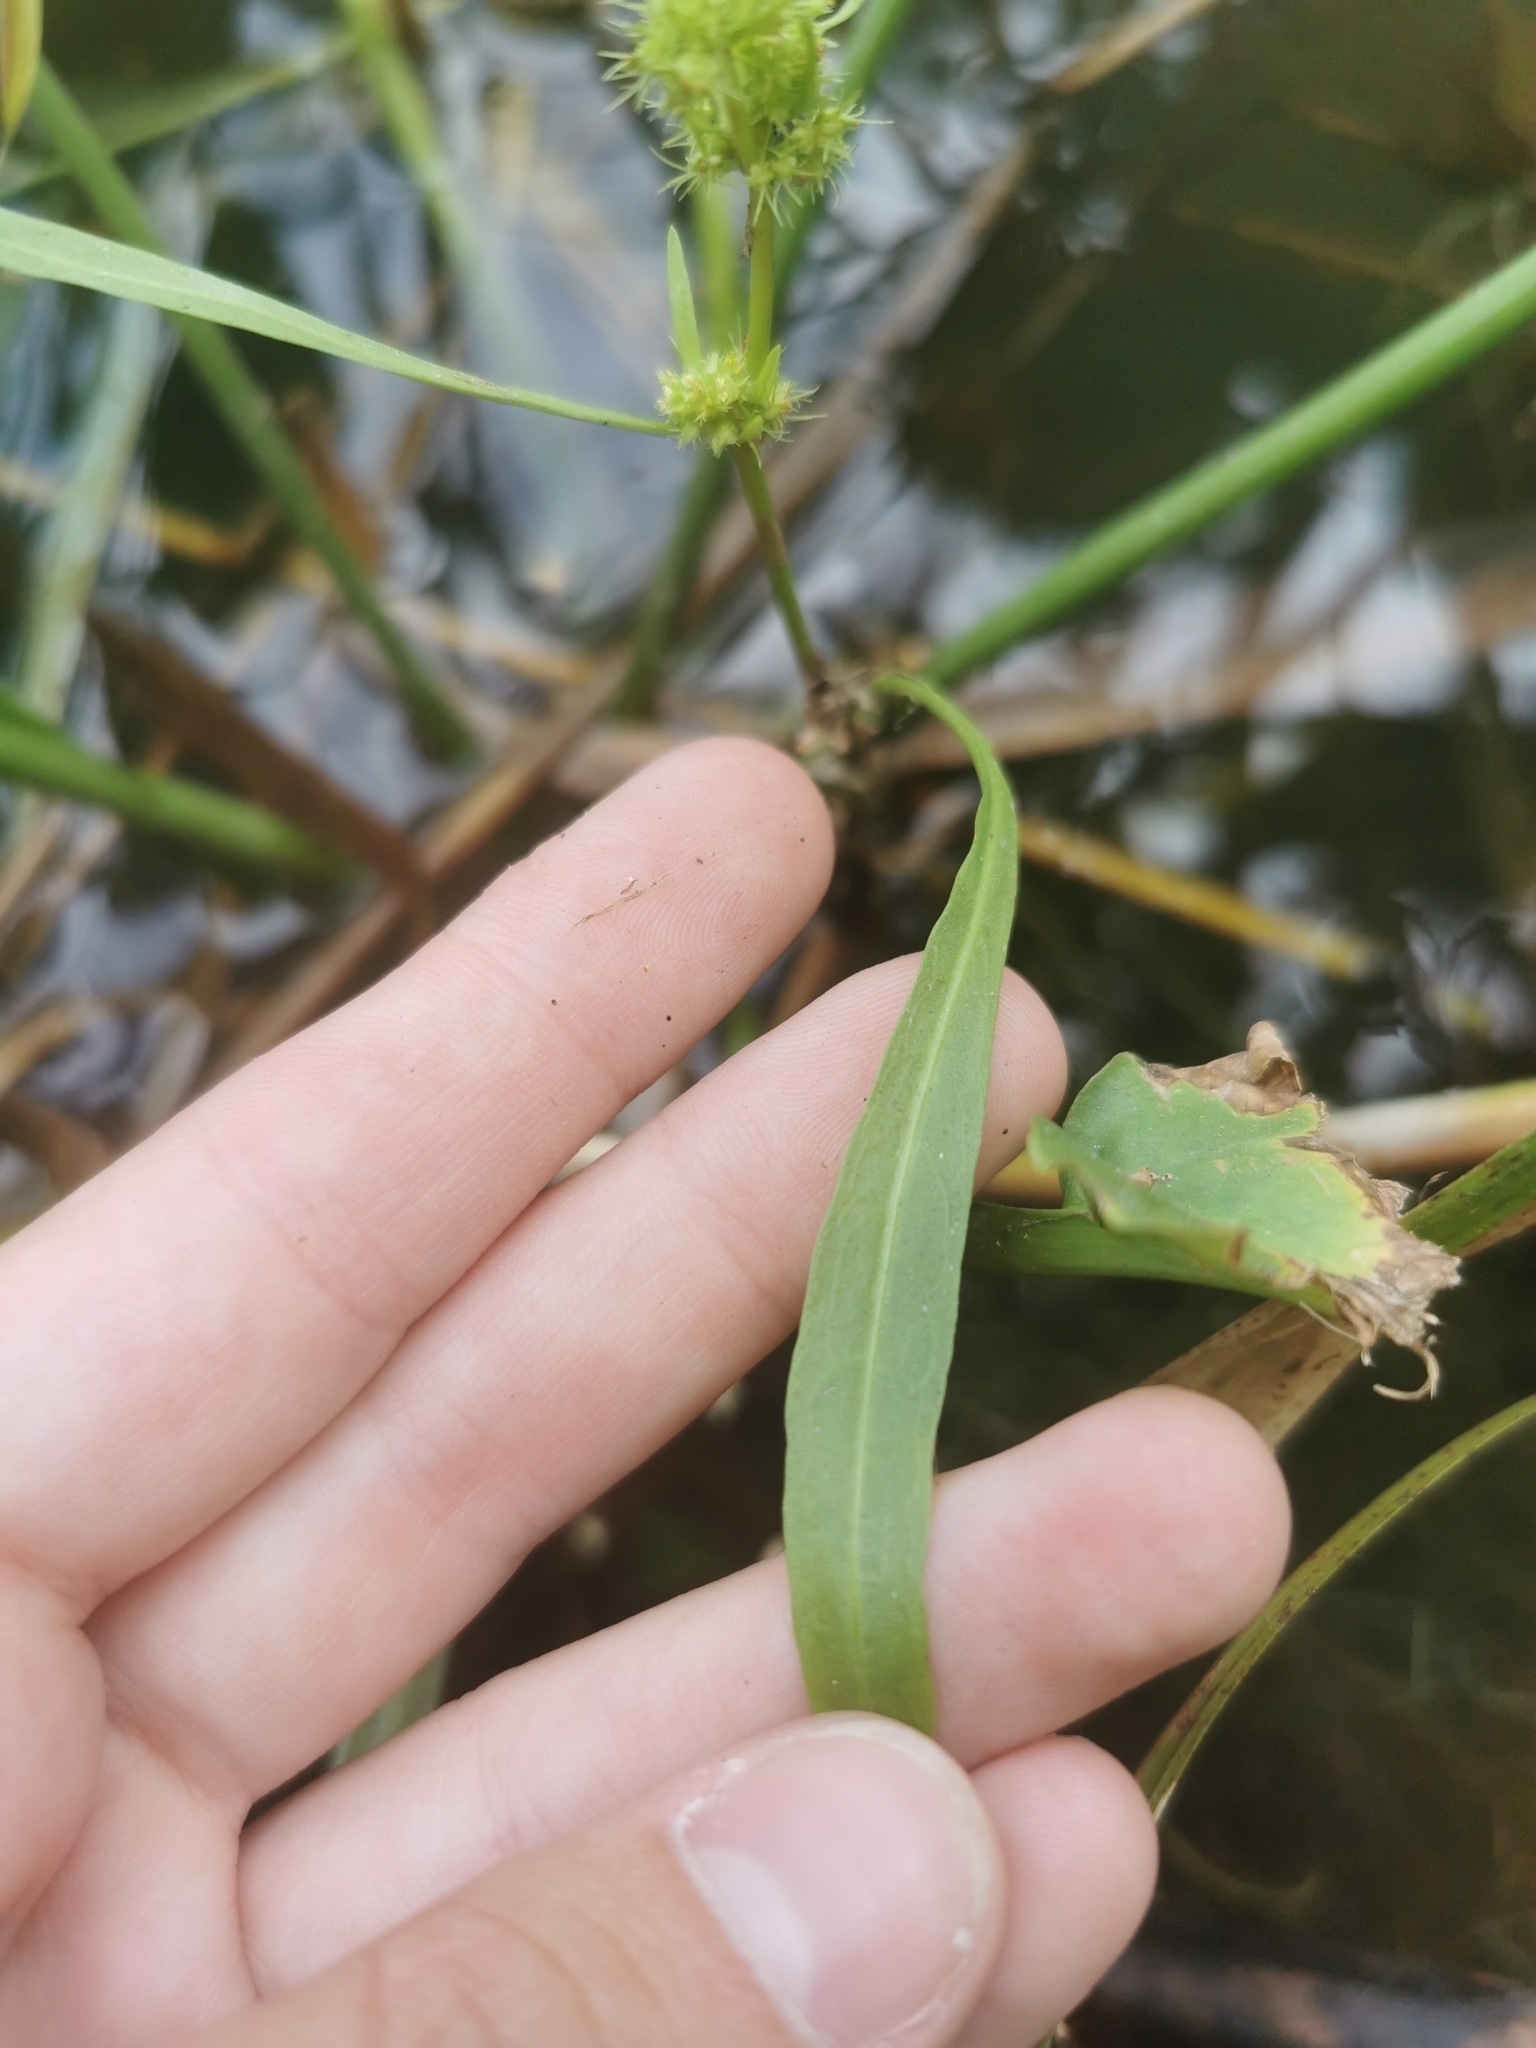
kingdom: Plantae
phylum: Tracheophyta
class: Magnoliopsida
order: Caryophyllales
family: Polygonaceae
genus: Rumex
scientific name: Rumex maritimus
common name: Golden dock
